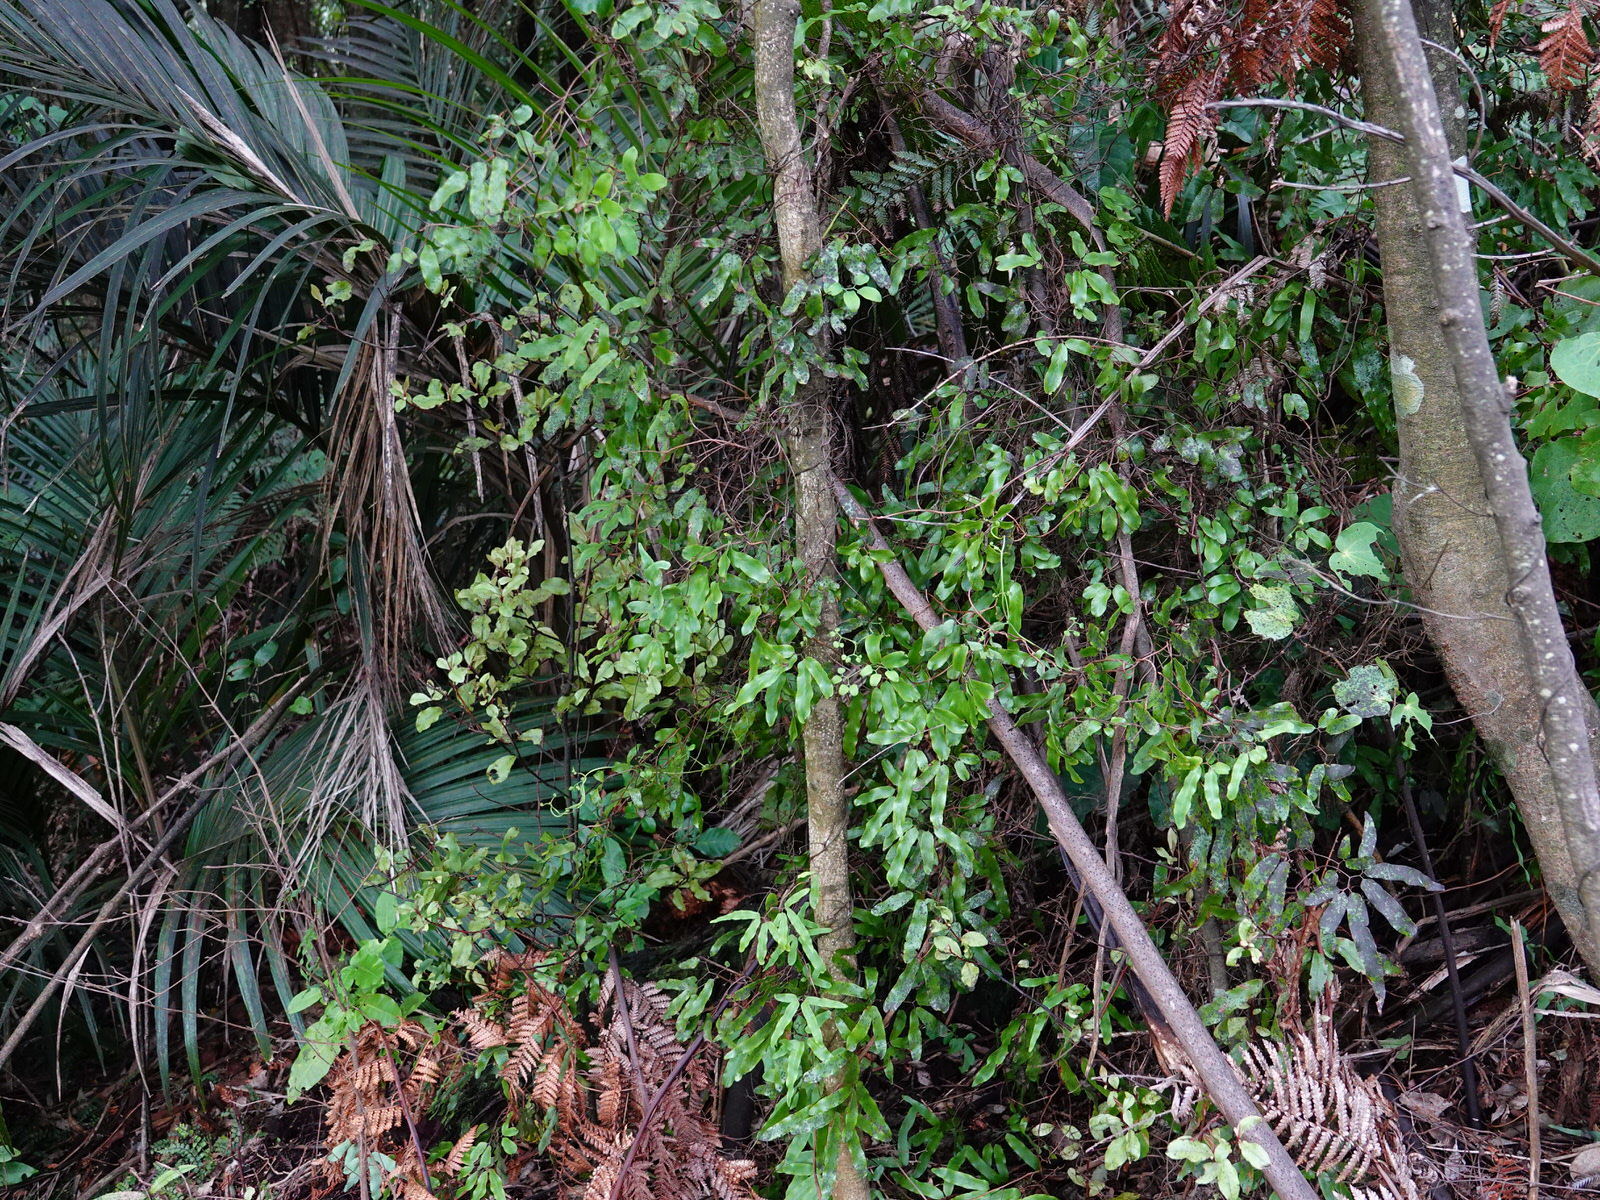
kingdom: Plantae
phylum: Tracheophyta
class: Polypodiopsida
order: Schizaeales
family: Lygodiaceae
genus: Lygodium
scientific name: Lygodium articulatum
